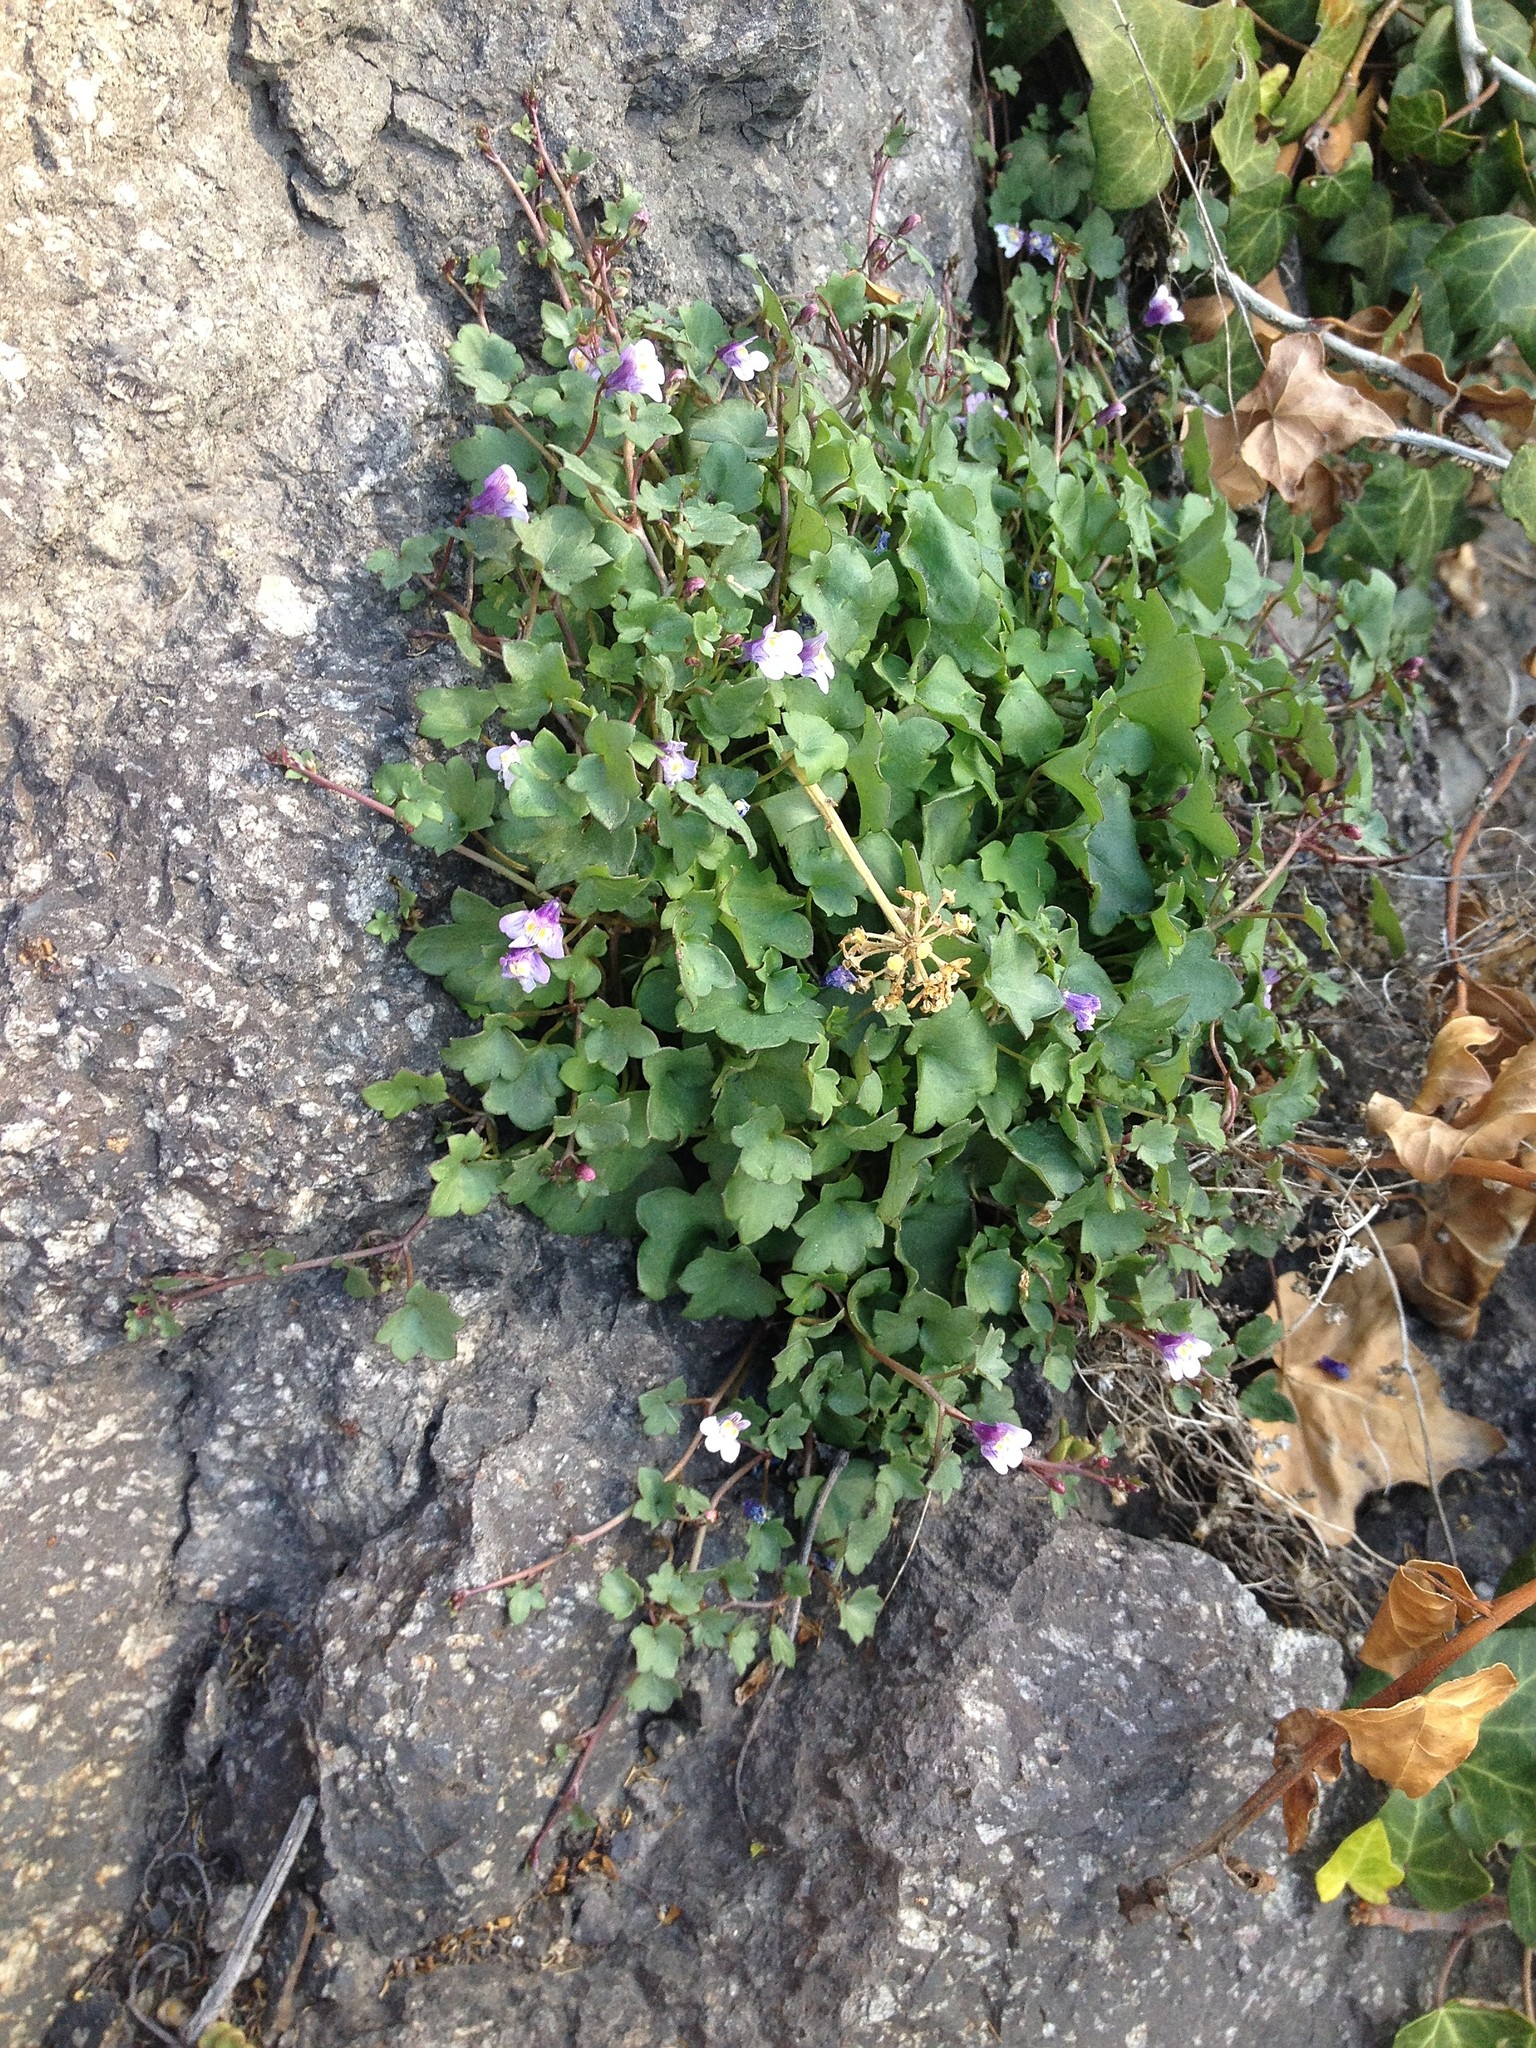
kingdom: Plantae
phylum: Tracheophyta
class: Magnoliopsida
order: Lamiales
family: Plantaginaceae
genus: Cymbalaria
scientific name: Cymbalaria muralis
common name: Ivy-leaved toadflax
